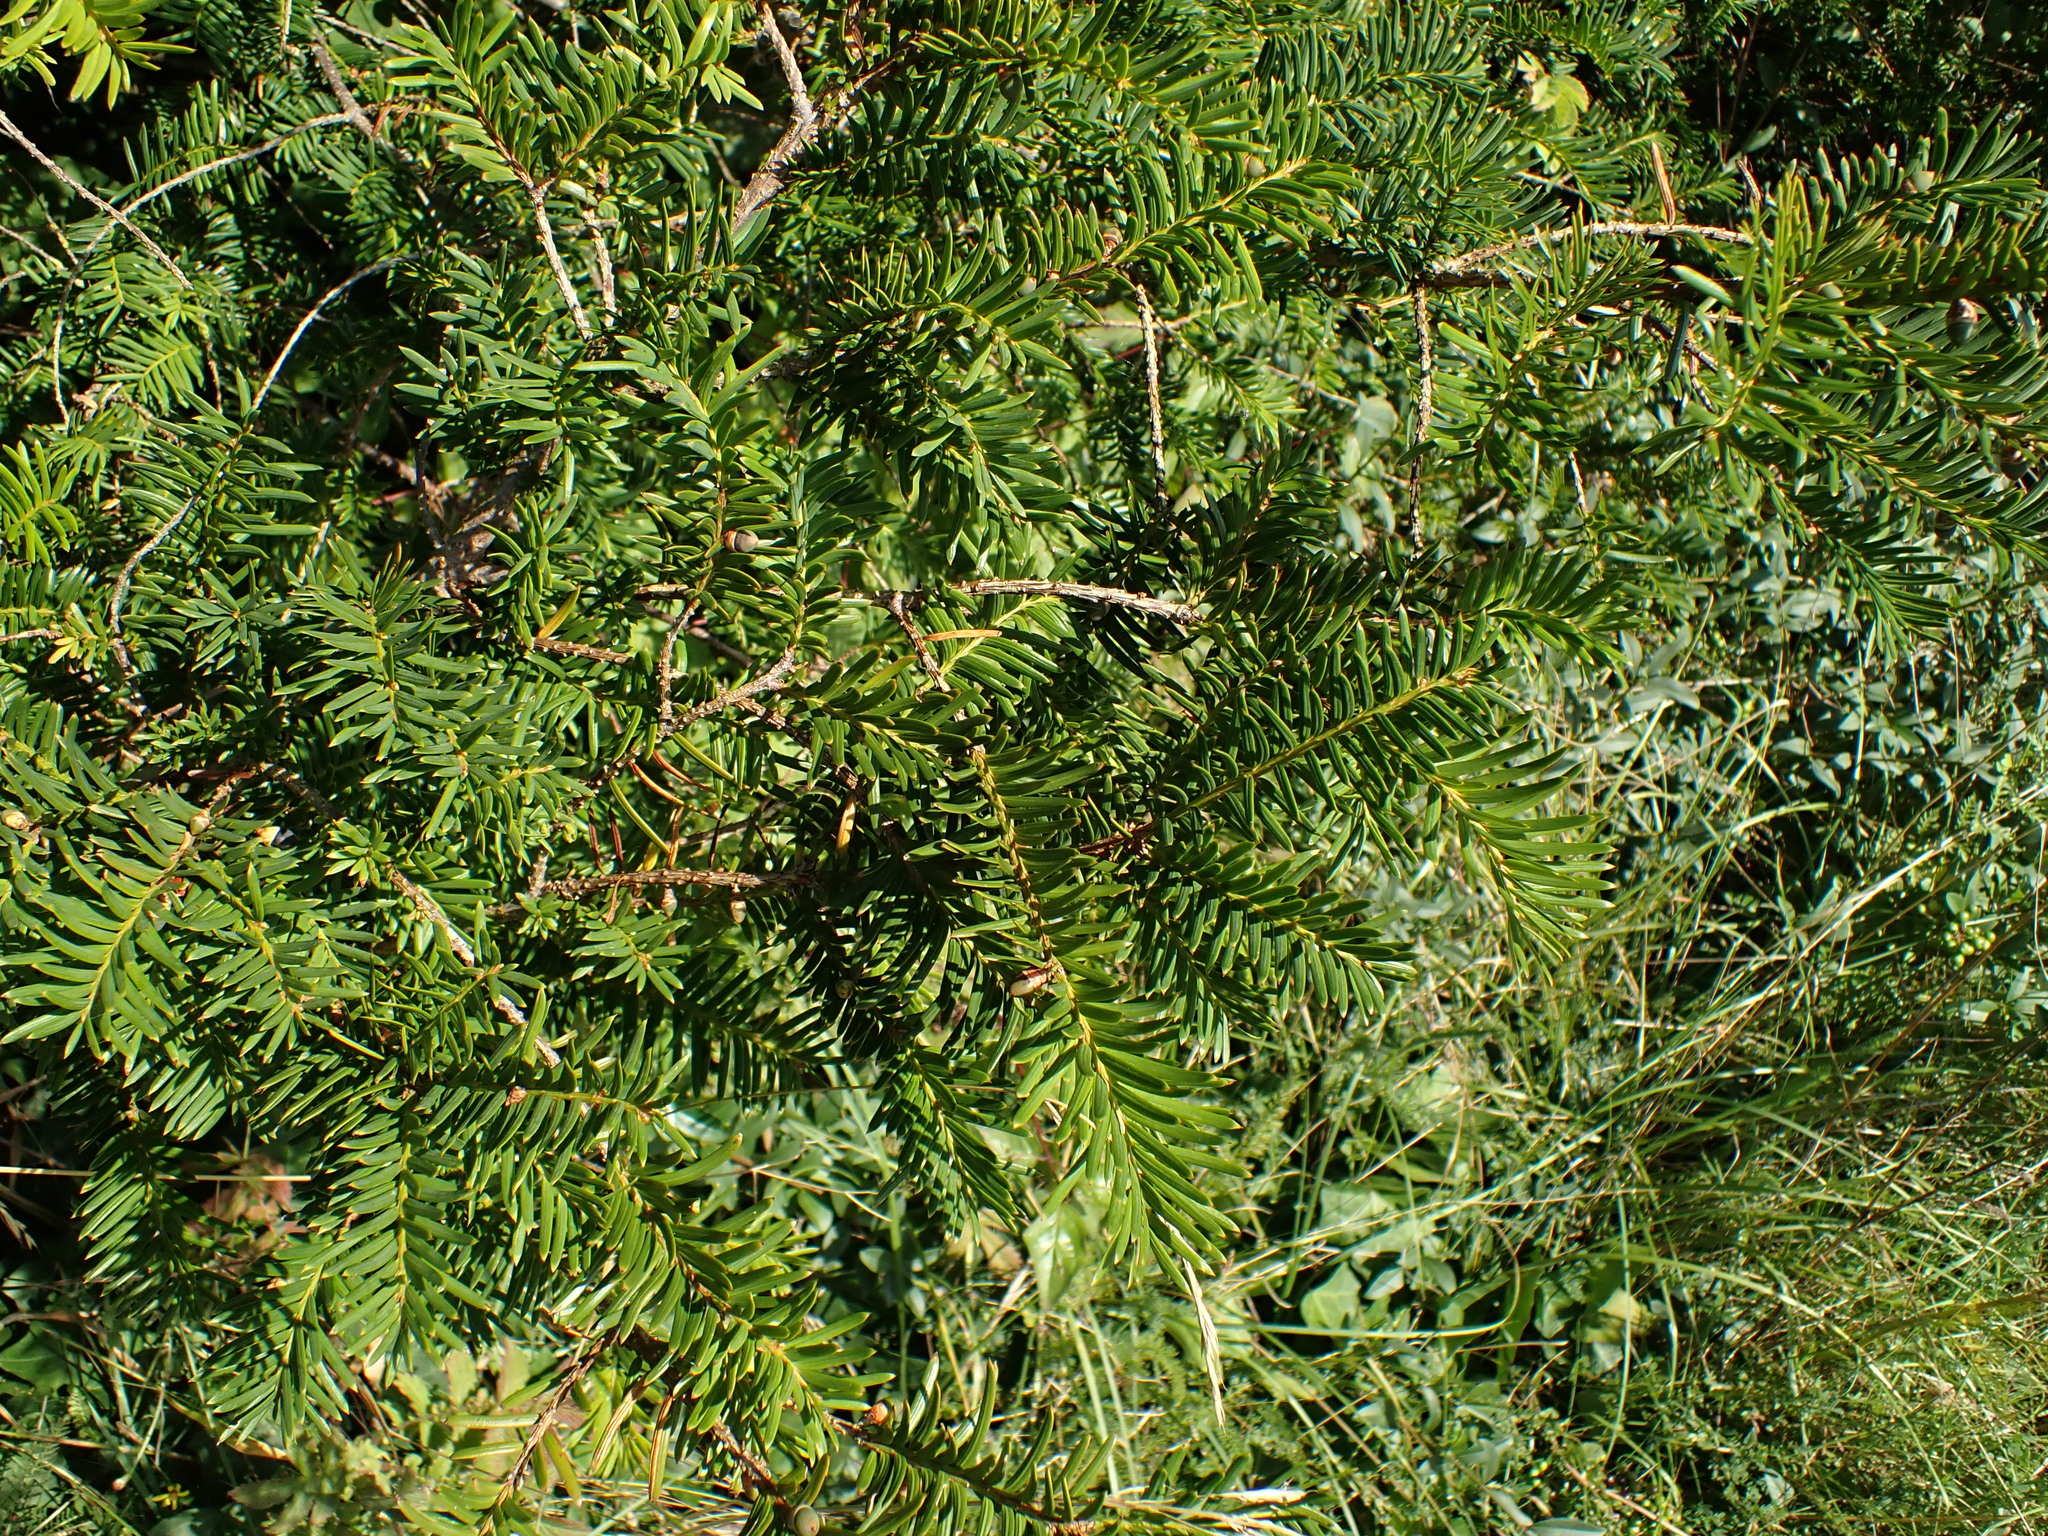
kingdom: Plantae
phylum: Tracheophyta
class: Pinopsida
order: Pinales
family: Taxaceae
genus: Taxus
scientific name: Taxus baccata
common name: Yew
